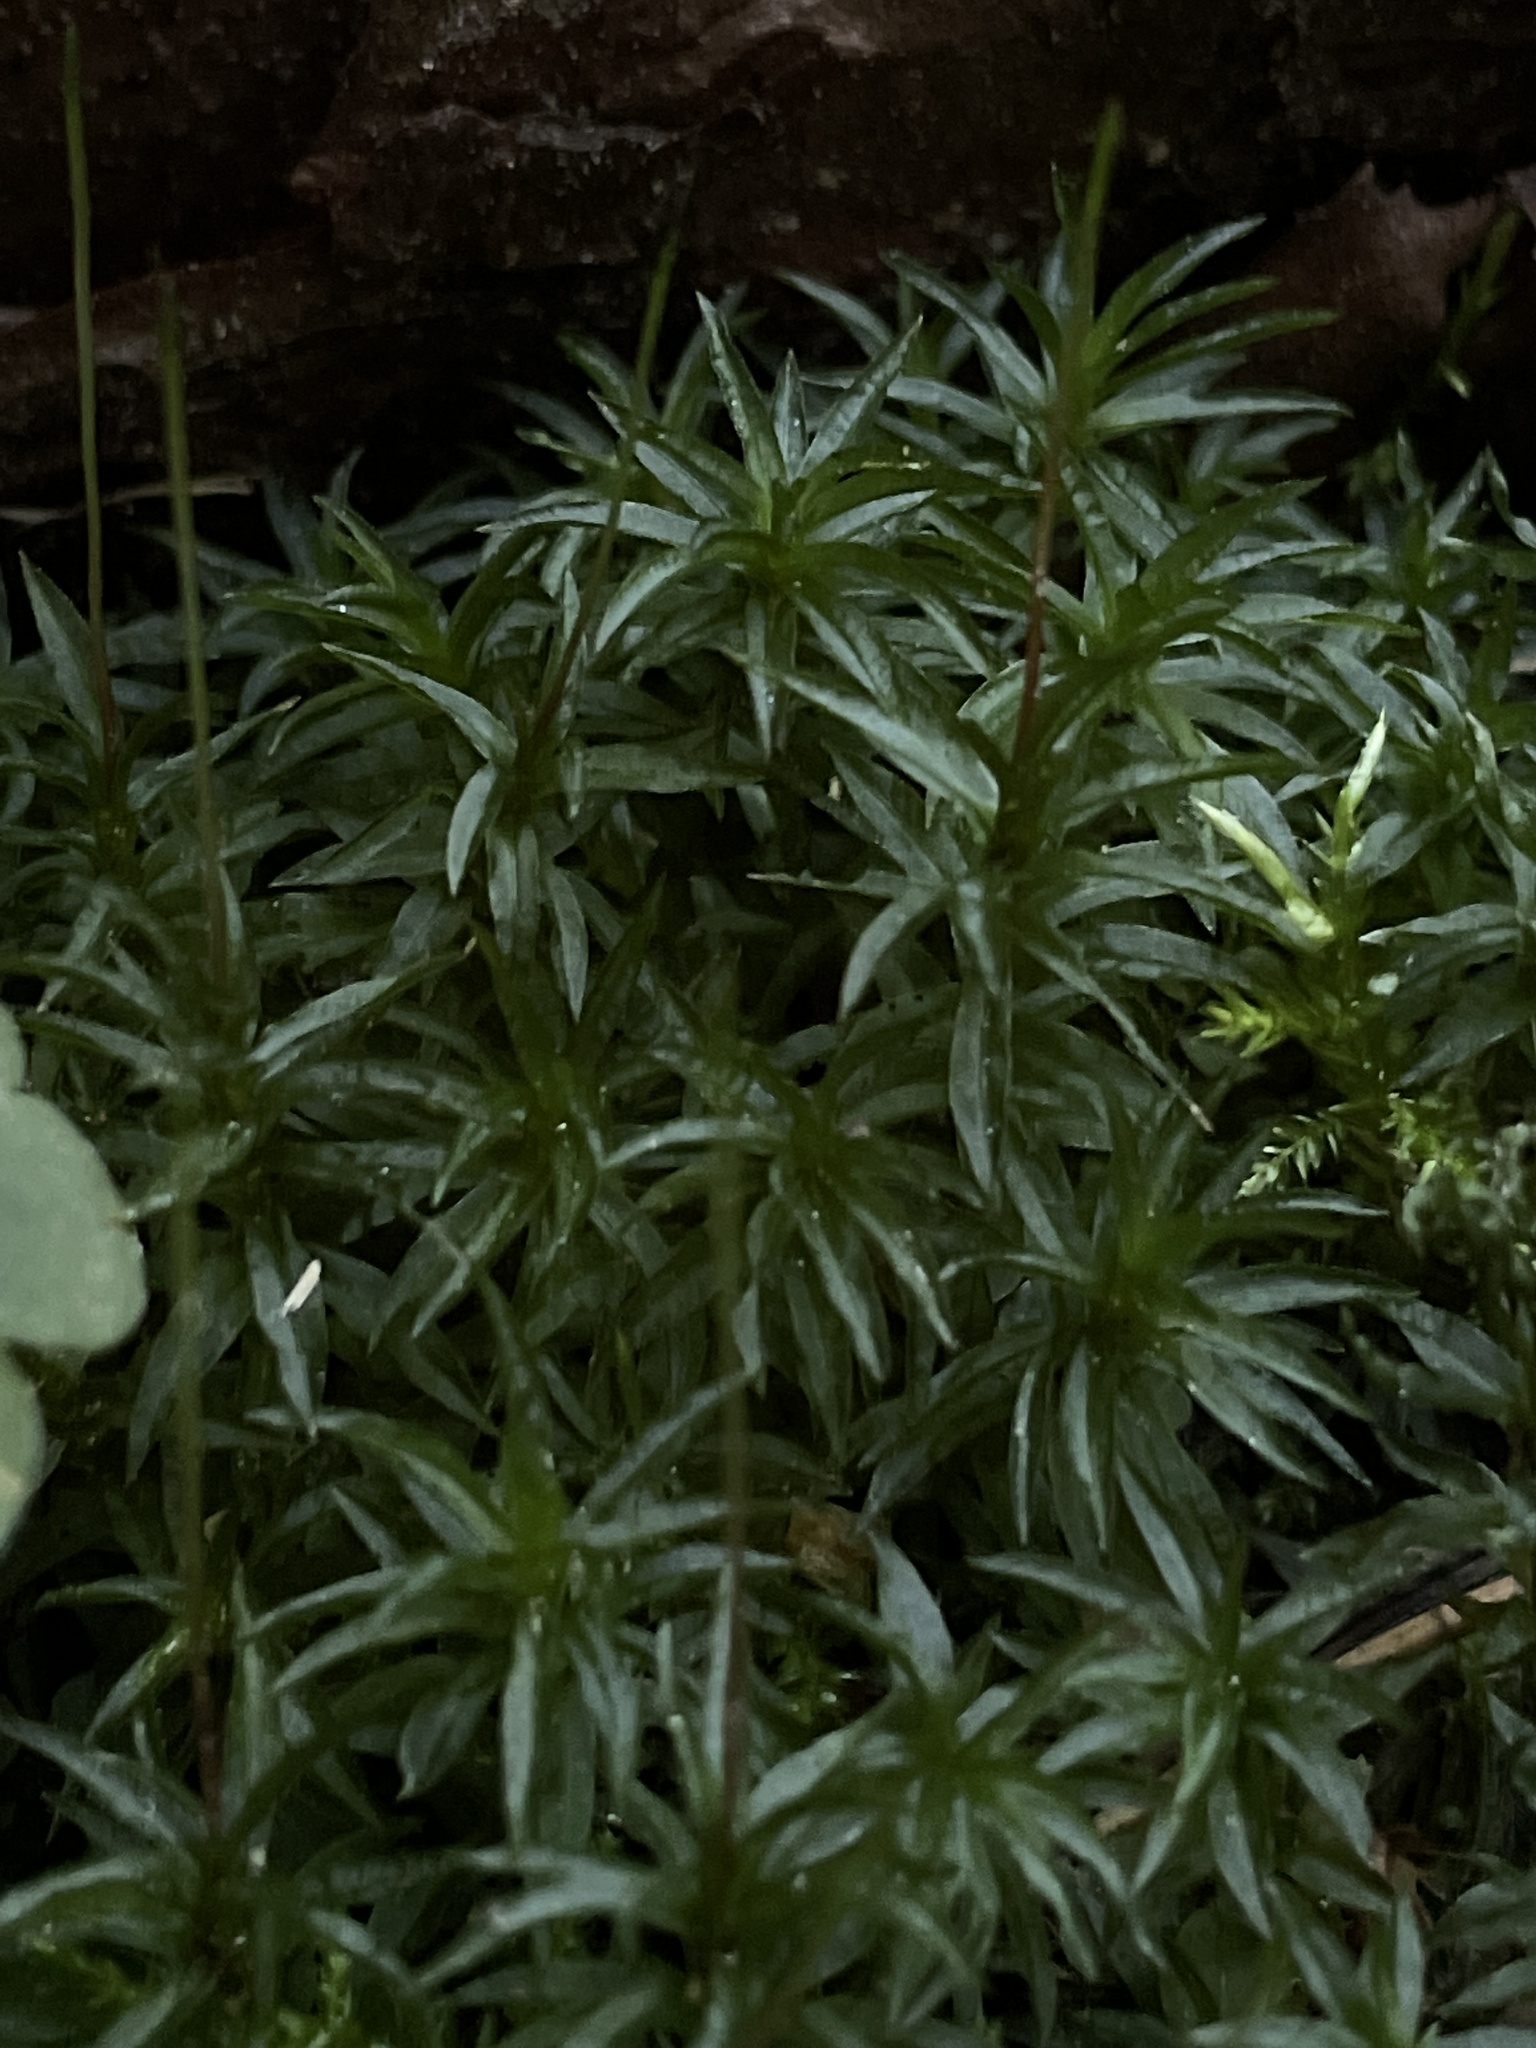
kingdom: Plantae
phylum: Bryophyta
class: Polytrichopsida
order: Polytrichales
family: Polytrichaceae
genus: Atrichum
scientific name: Atrichum undulatum
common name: Common smoothcap
